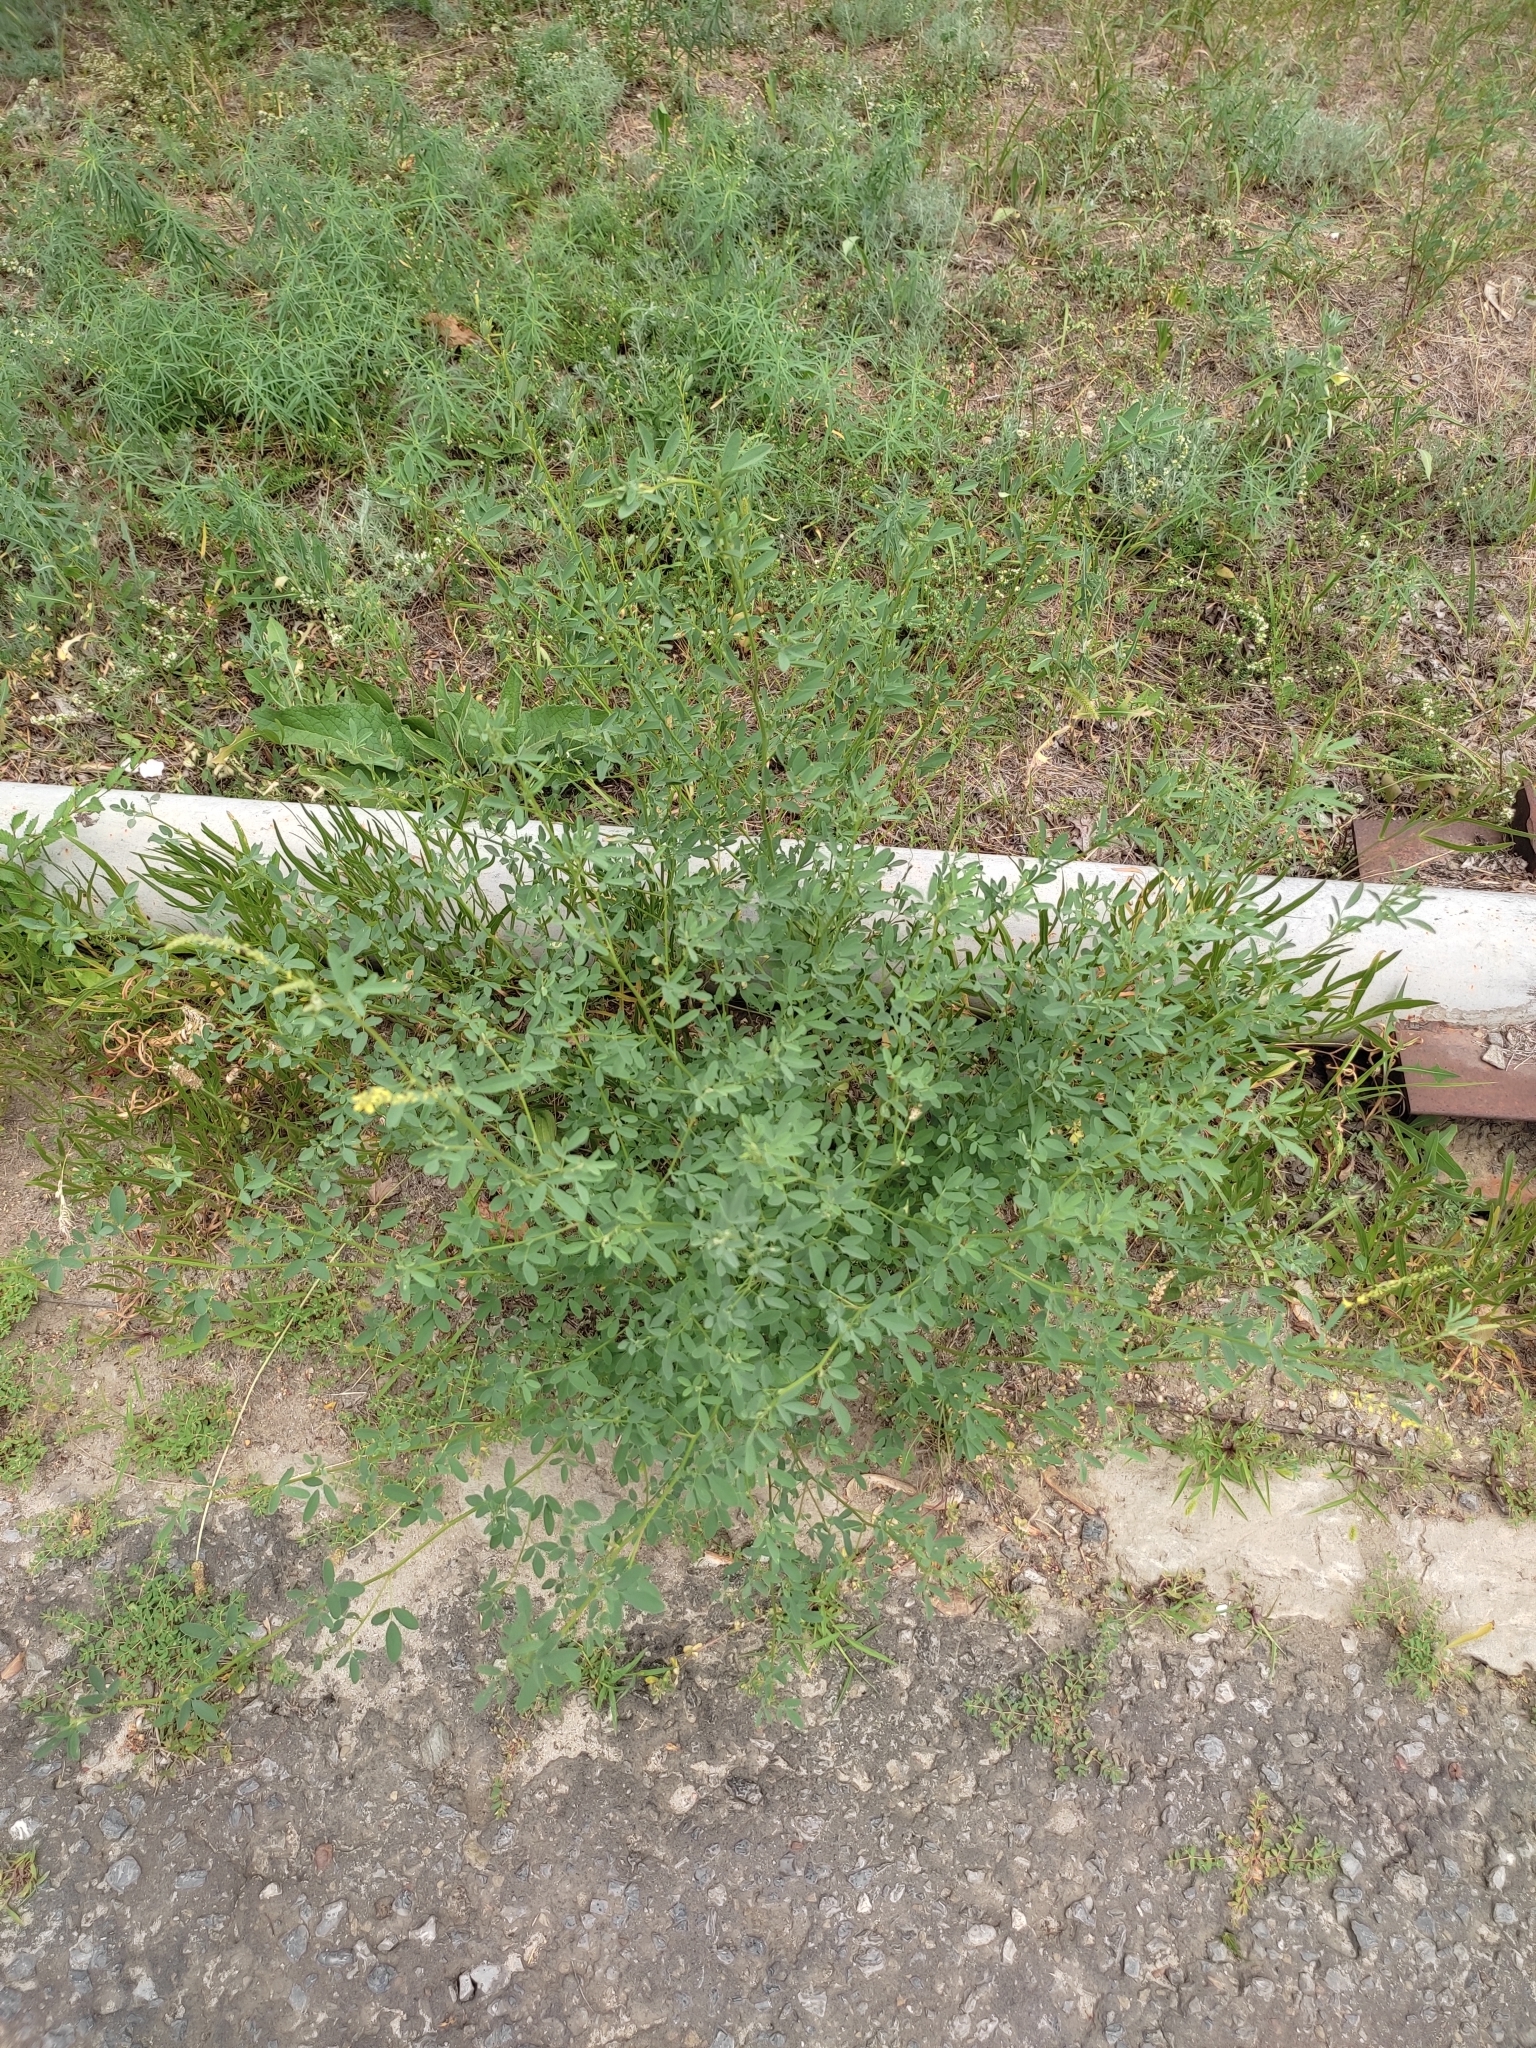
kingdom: Plantae
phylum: Tracheophyta
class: Magnoliopsida
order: Fabales
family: Fabaceae
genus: Melilotus
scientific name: Melilotus officinalis
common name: Sweetclover
